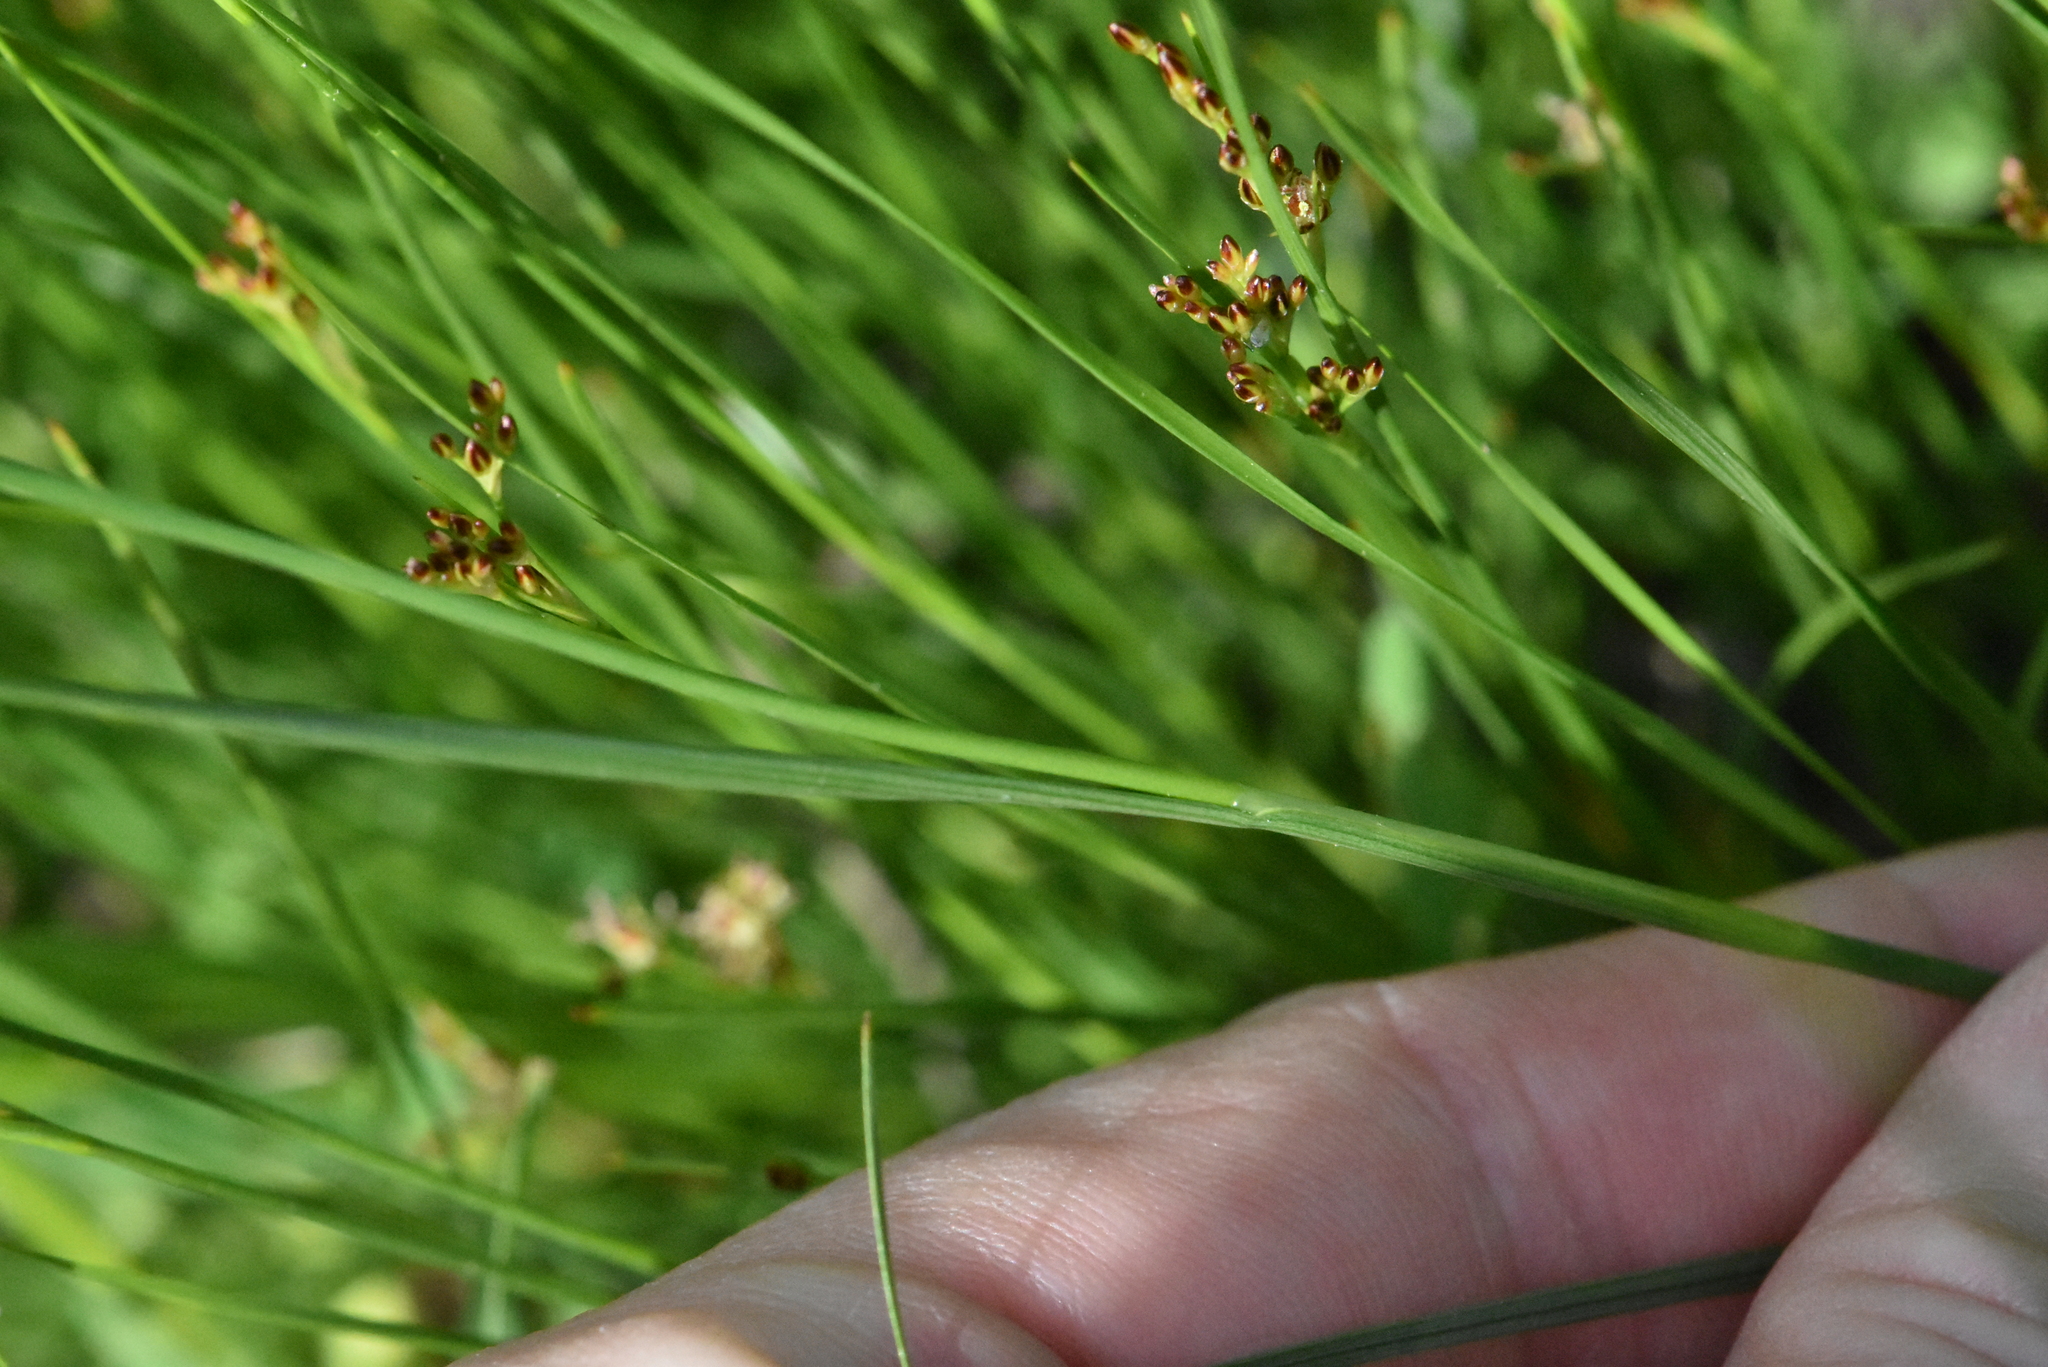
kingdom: Plantae
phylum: Tracheophyta
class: Liliopsida
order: Poales
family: Juncaceae
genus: Juncus
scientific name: Juncus compressus
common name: Round-fruited rush
